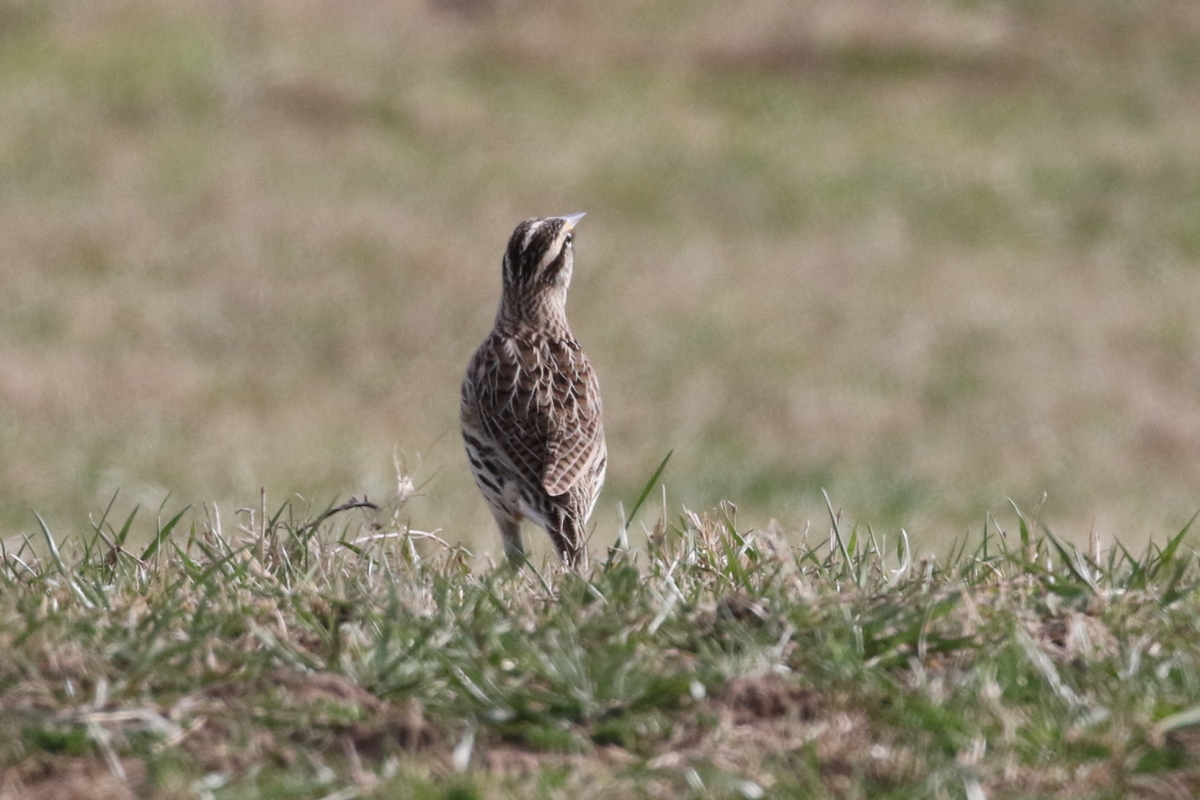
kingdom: Animalia
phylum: Chordata
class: Aves
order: Passeriformes
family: Icteridae
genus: Sturnella
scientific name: Sturnella magna
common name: Eastern meadowlark
